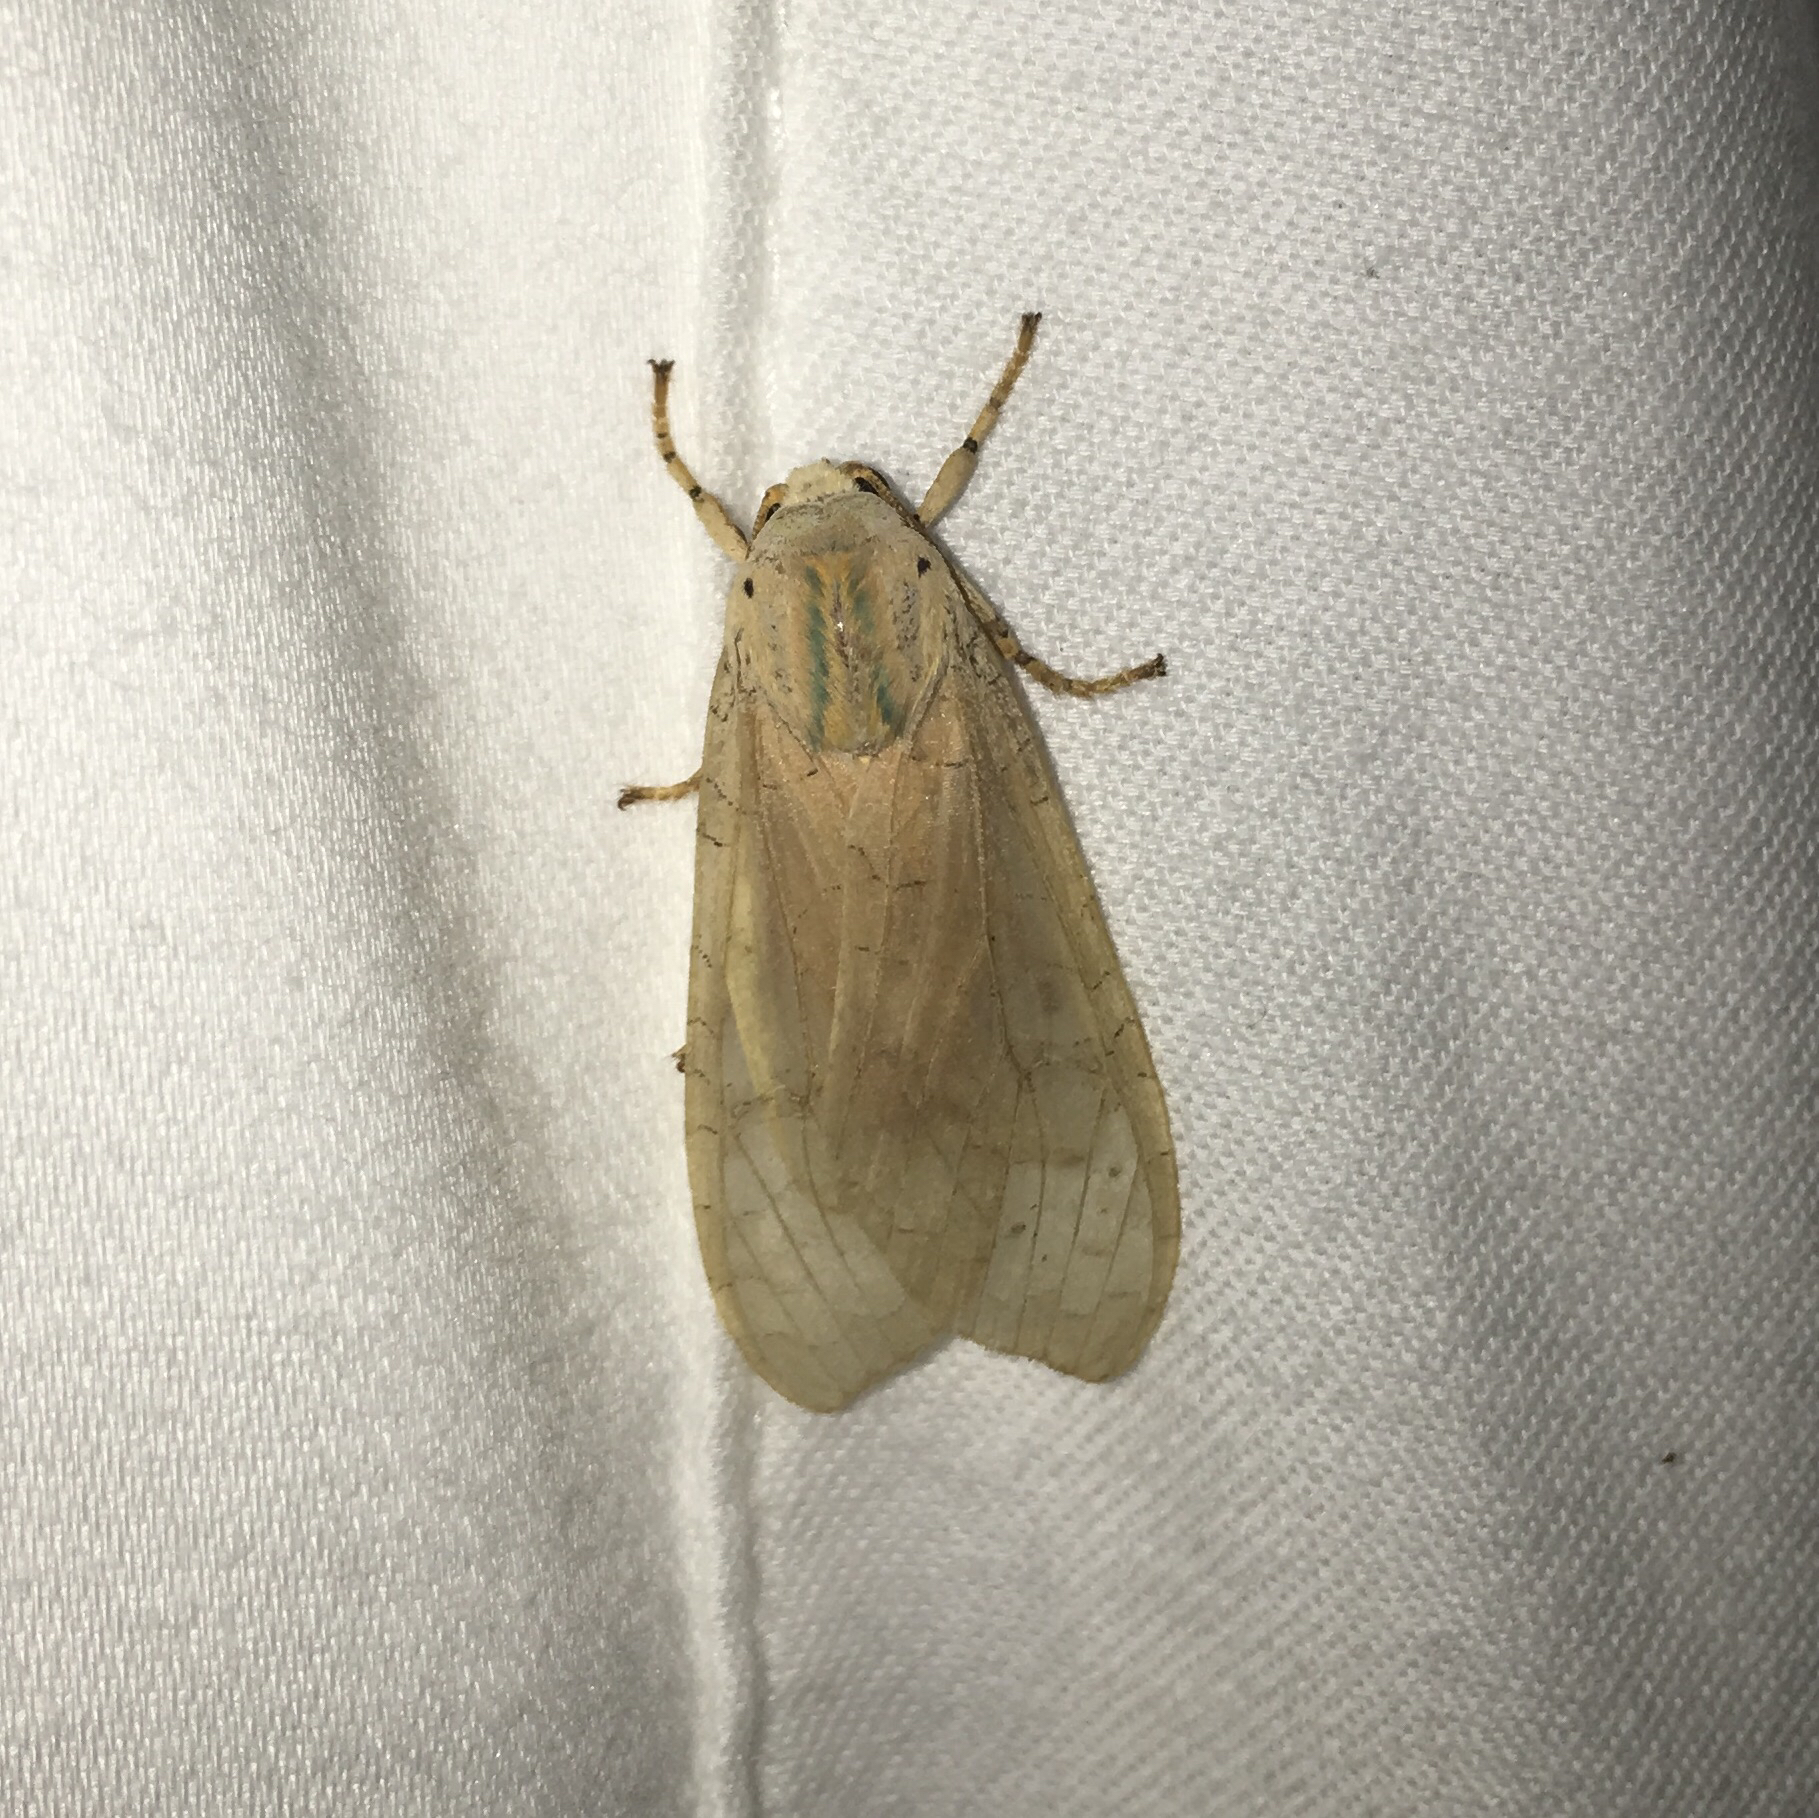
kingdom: Animalia
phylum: Arthropoda
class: Insecta
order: Lepidoptera
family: Erebidae
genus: Halysidota
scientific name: Halysidota
